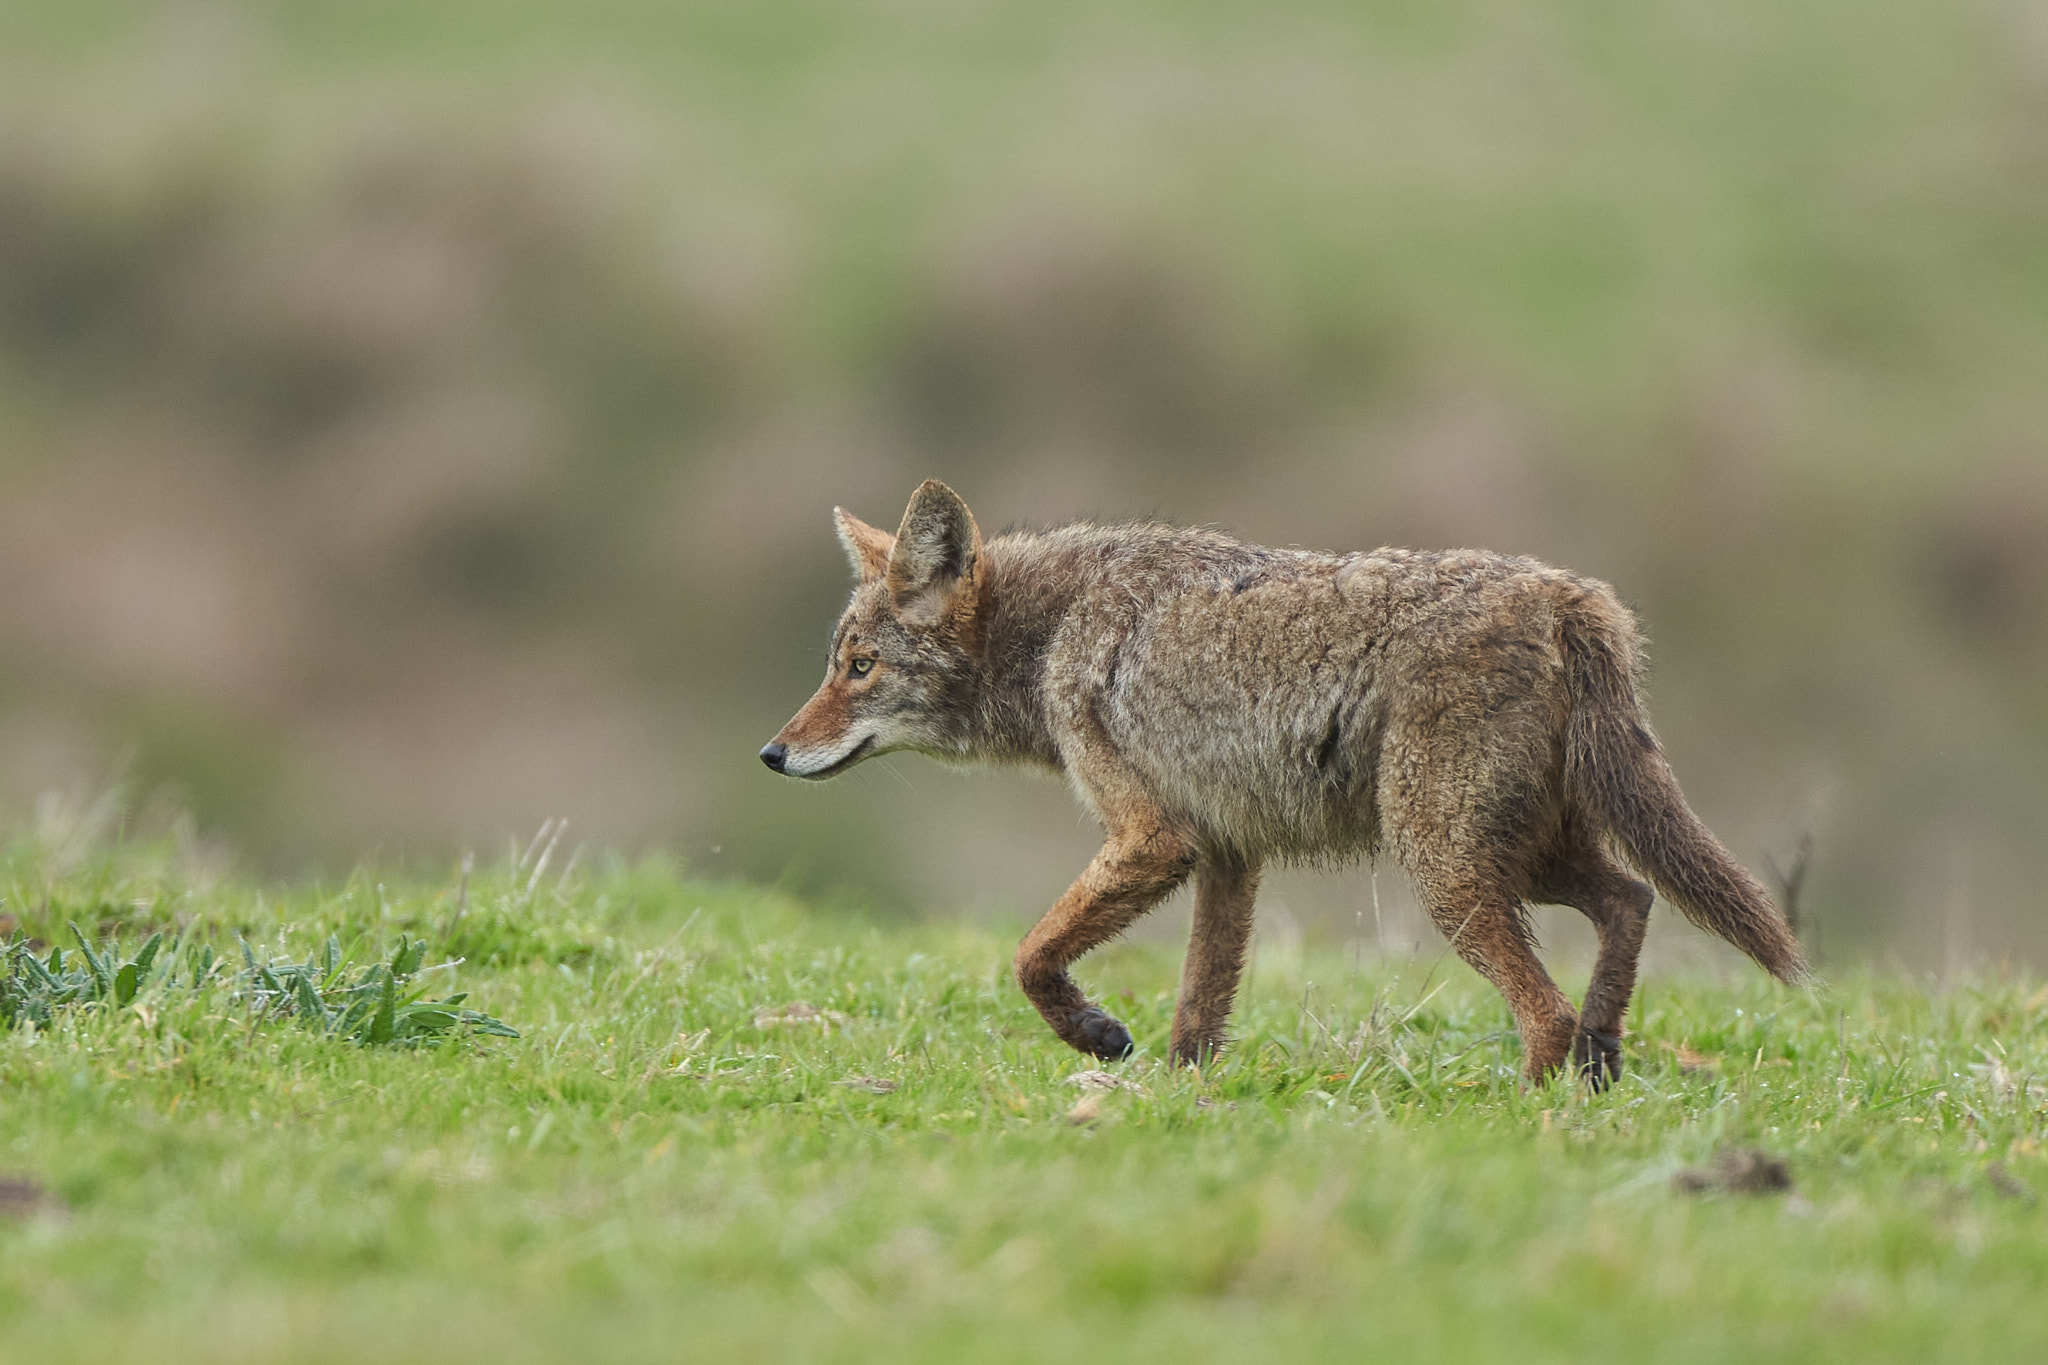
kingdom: Animalia
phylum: Chordata
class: Mammalia
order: Carnivora
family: Canidae
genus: Canis
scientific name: Canis latrans
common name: Coyote
